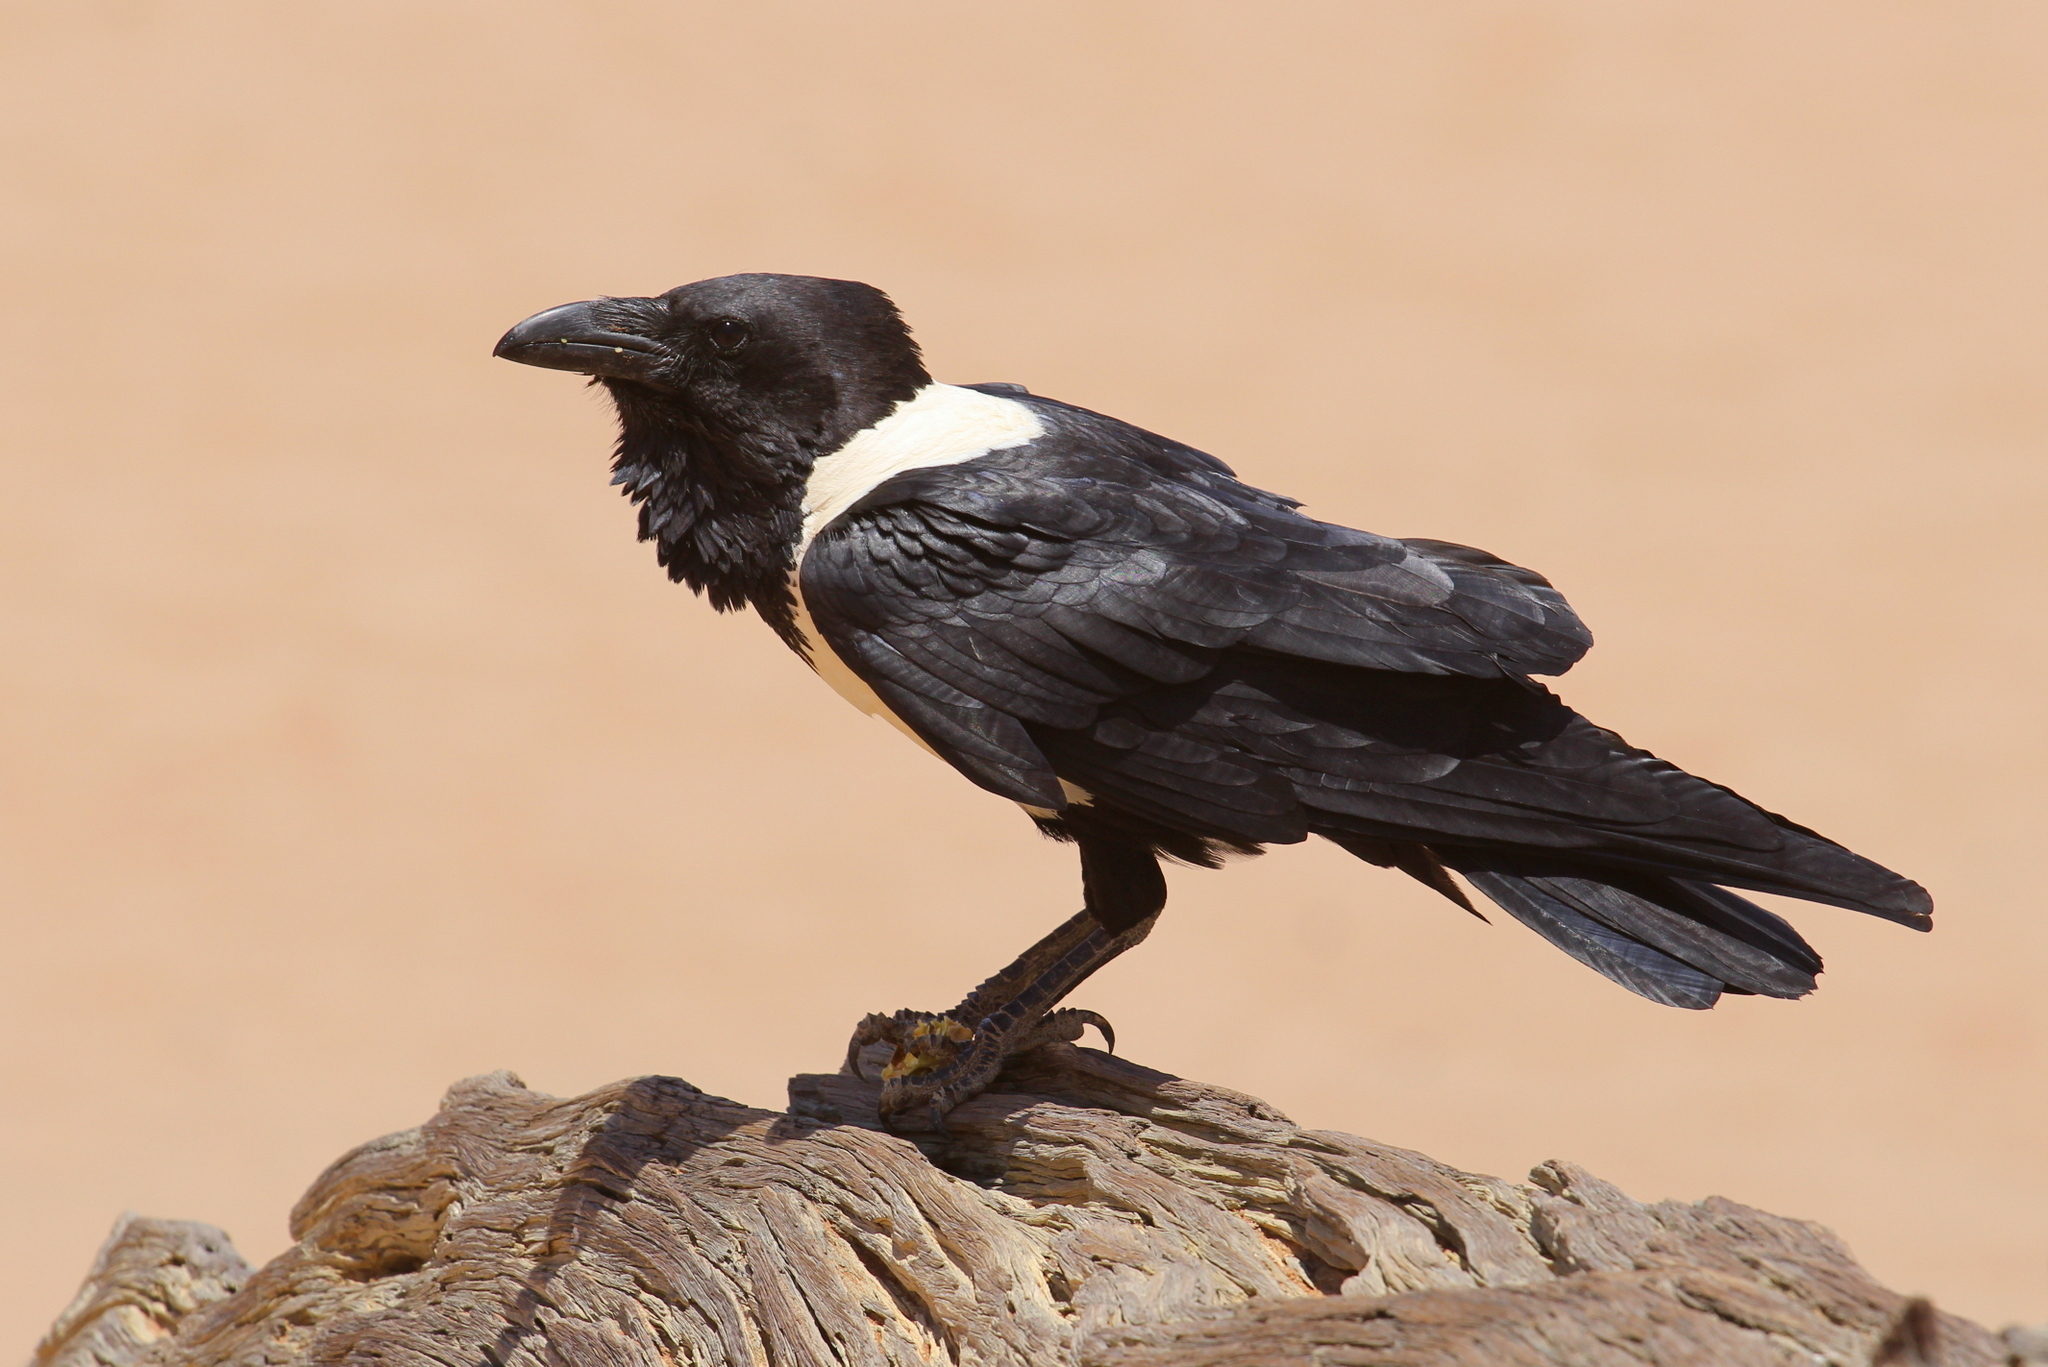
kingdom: Animalia
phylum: Chordata
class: Aves
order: Passeriformes
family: Corvidae
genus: Corvus
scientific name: Corvus albus
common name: Pied crow
